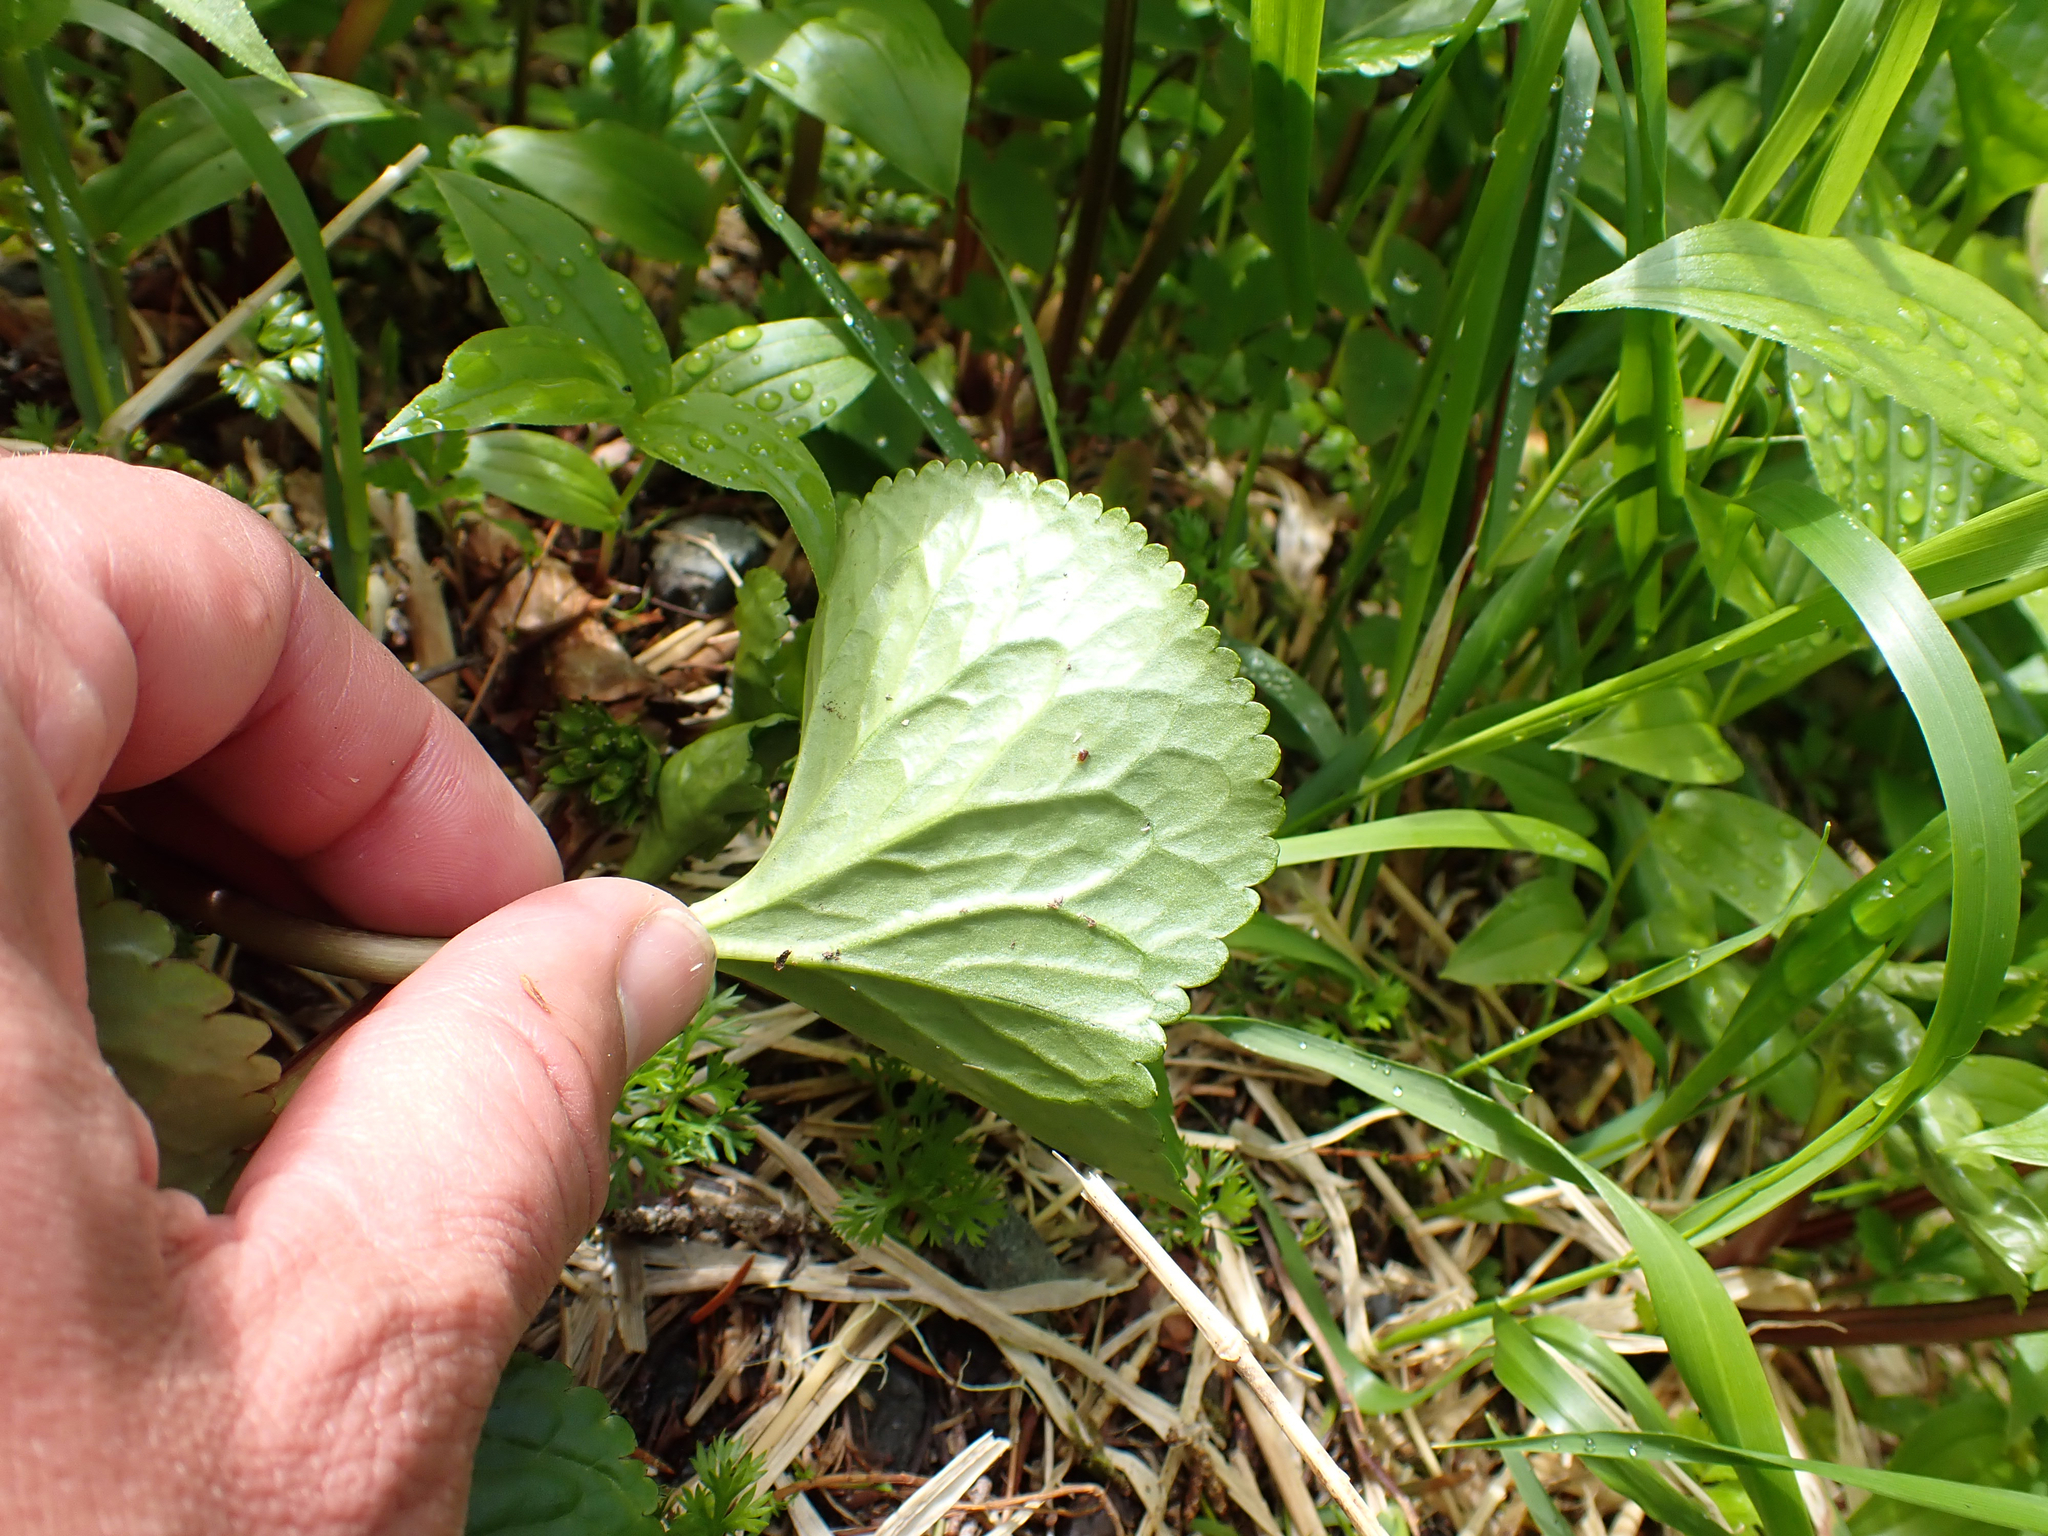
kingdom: Plantae
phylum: Tracheophyta
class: Magnoliopsida
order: Asterales
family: Menyanthaceae
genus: Nephrophyllidium
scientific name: Nephrophyllidium crista-galli
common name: Deer-cabbage
